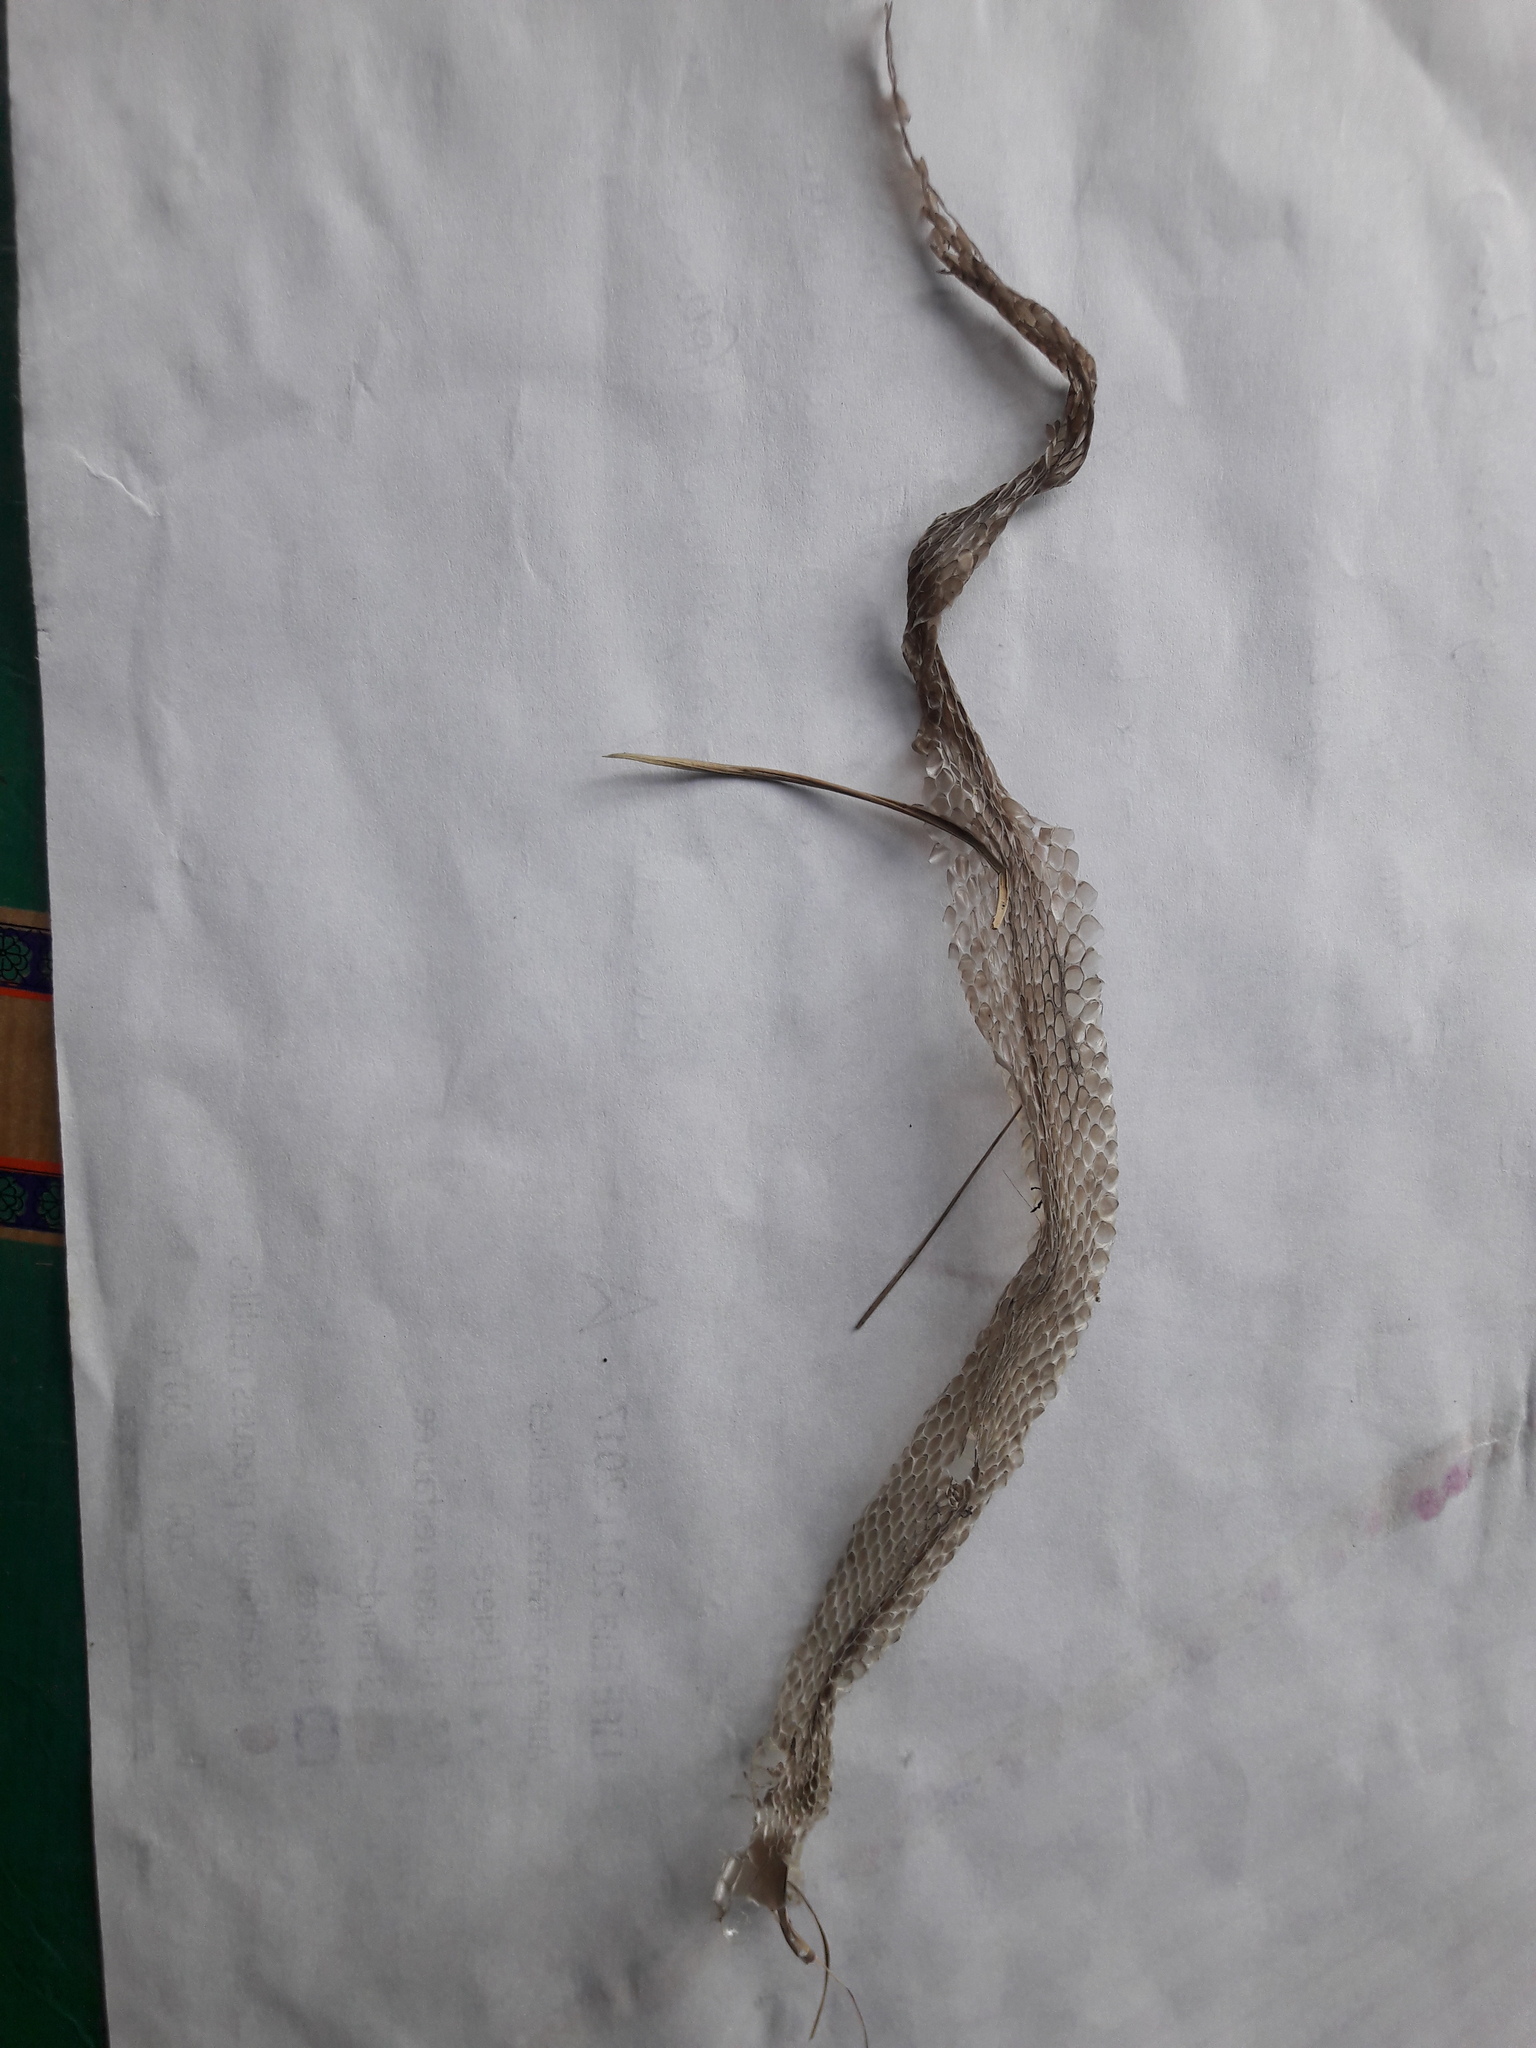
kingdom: Animalia
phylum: Chordata
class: Squamata
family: Colubridae
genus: Natrix
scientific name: Natrix helvetica
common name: Banded grass snake
